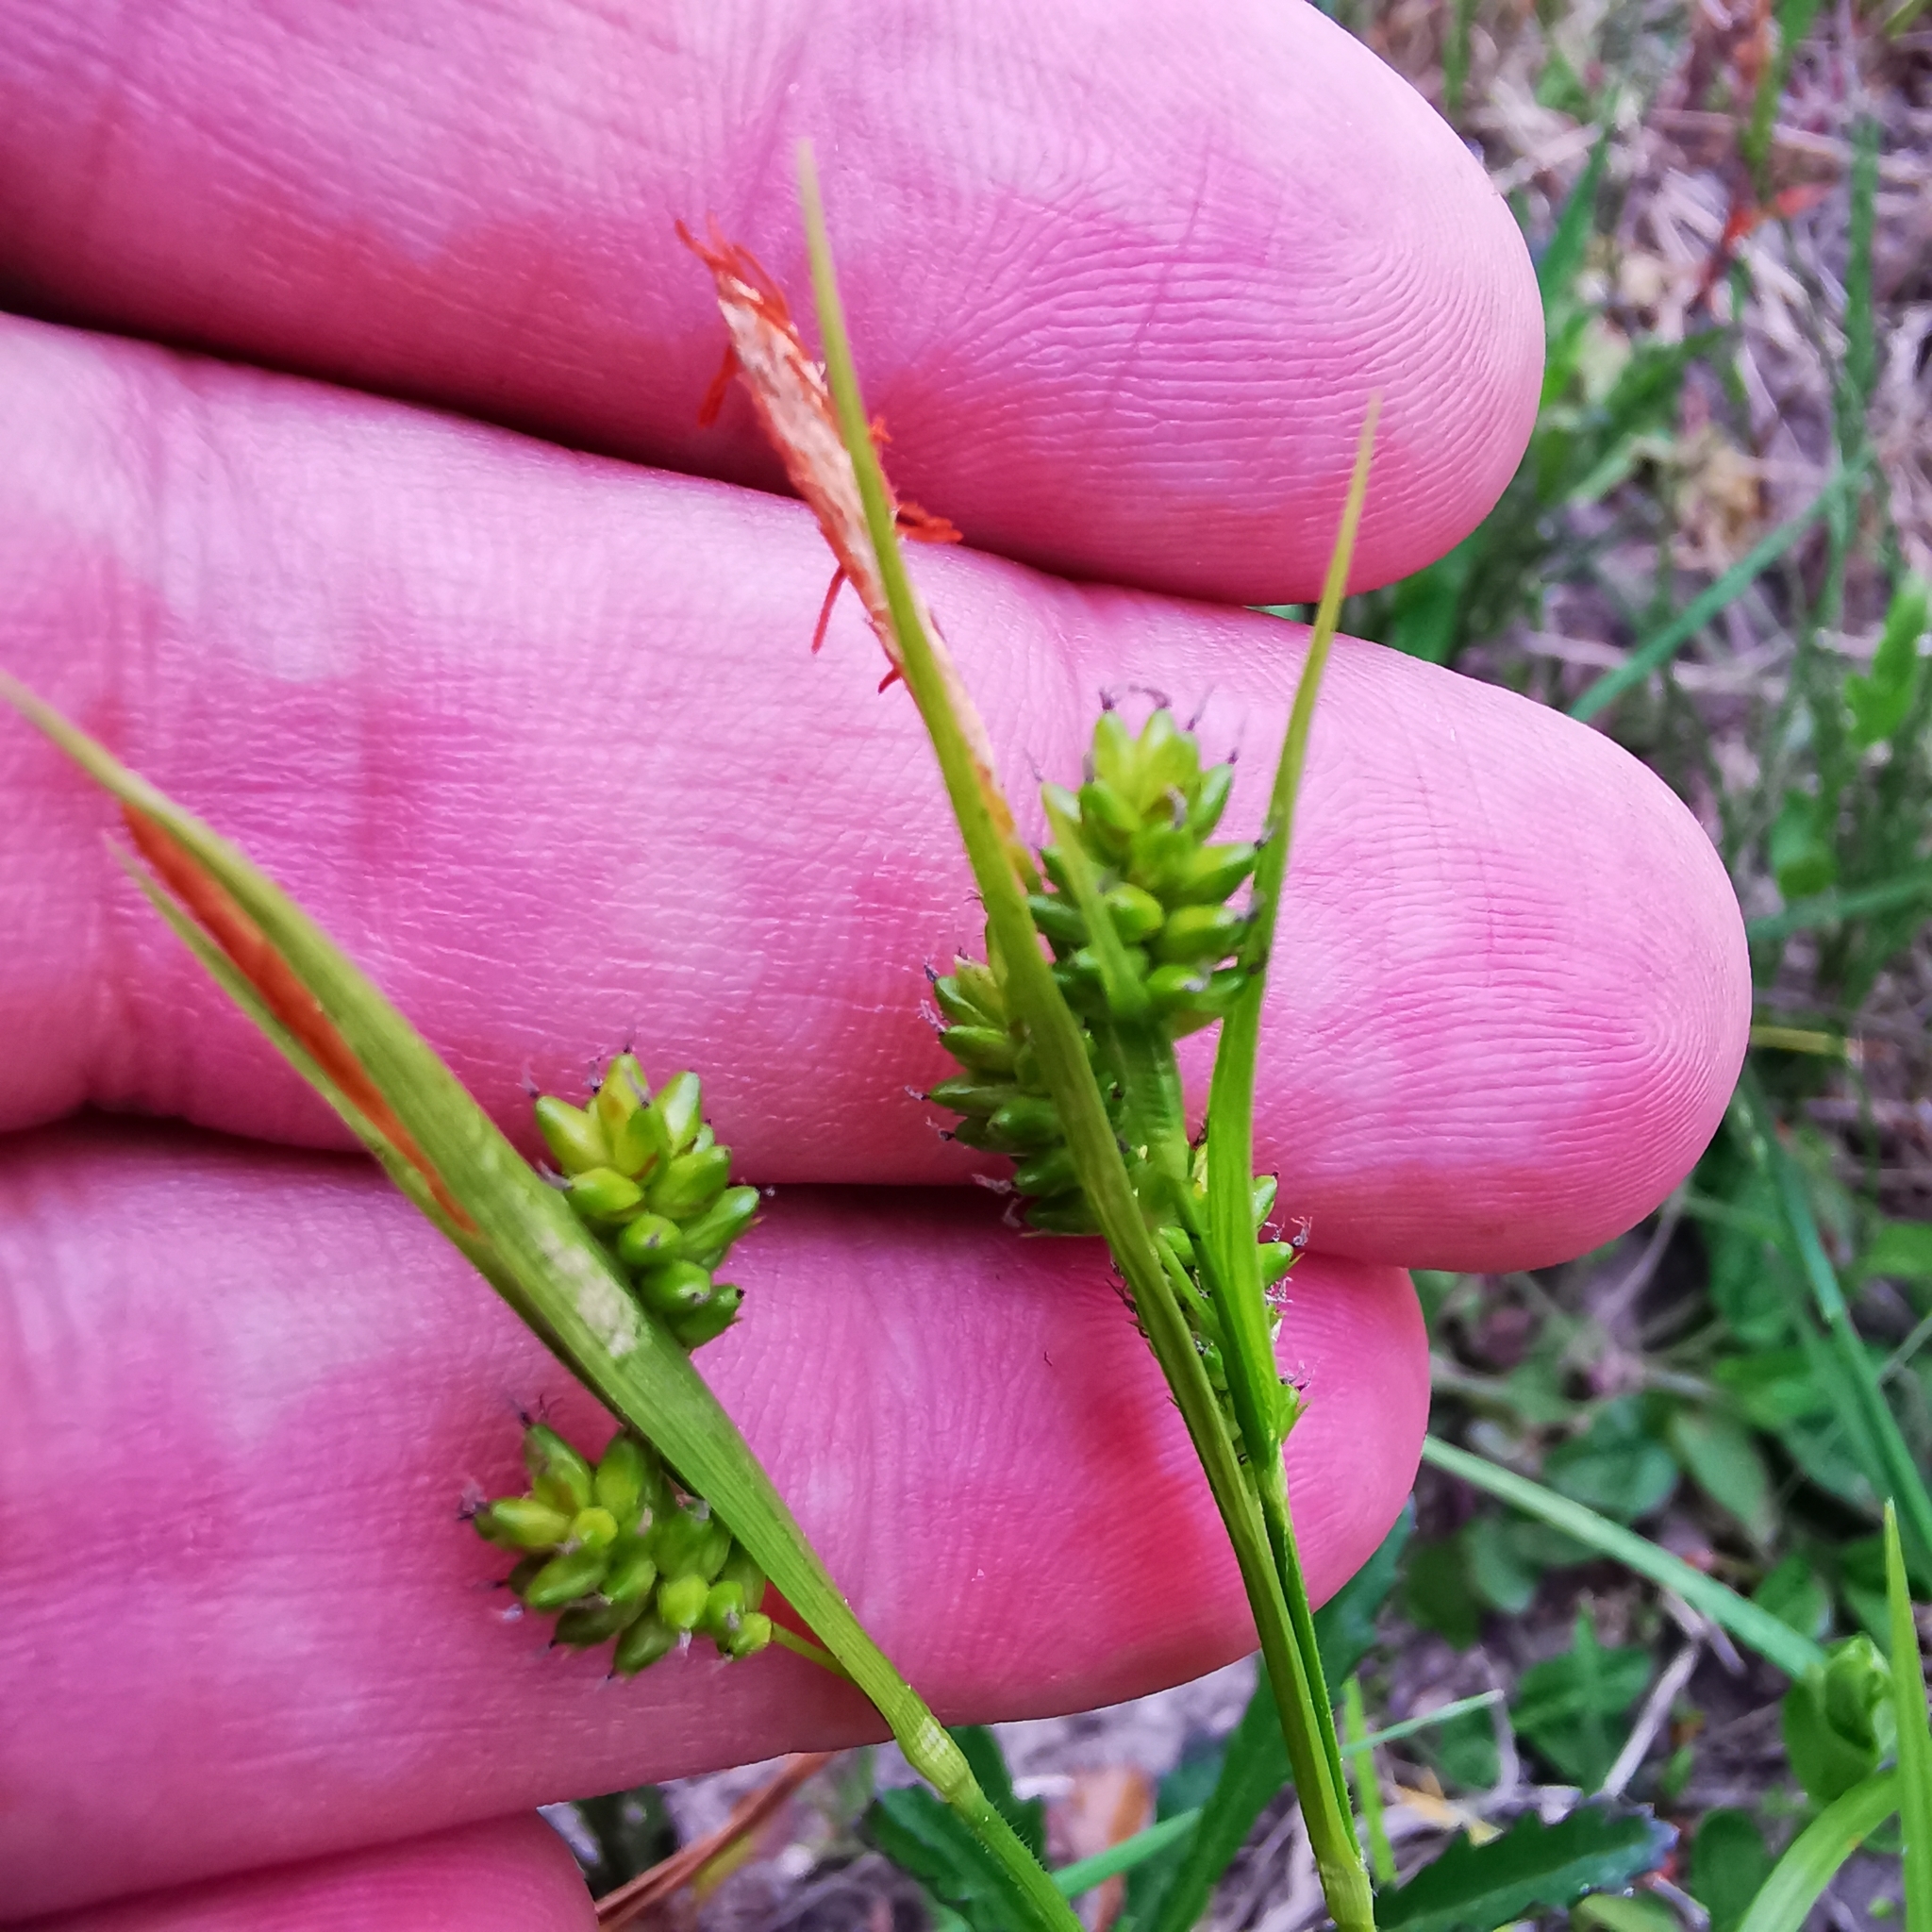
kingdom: Plantae
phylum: Tracheophyta
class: Liliopsida
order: Poales
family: Cyperaceae
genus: Carex
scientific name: Carex pallescens
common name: Pale sedge
